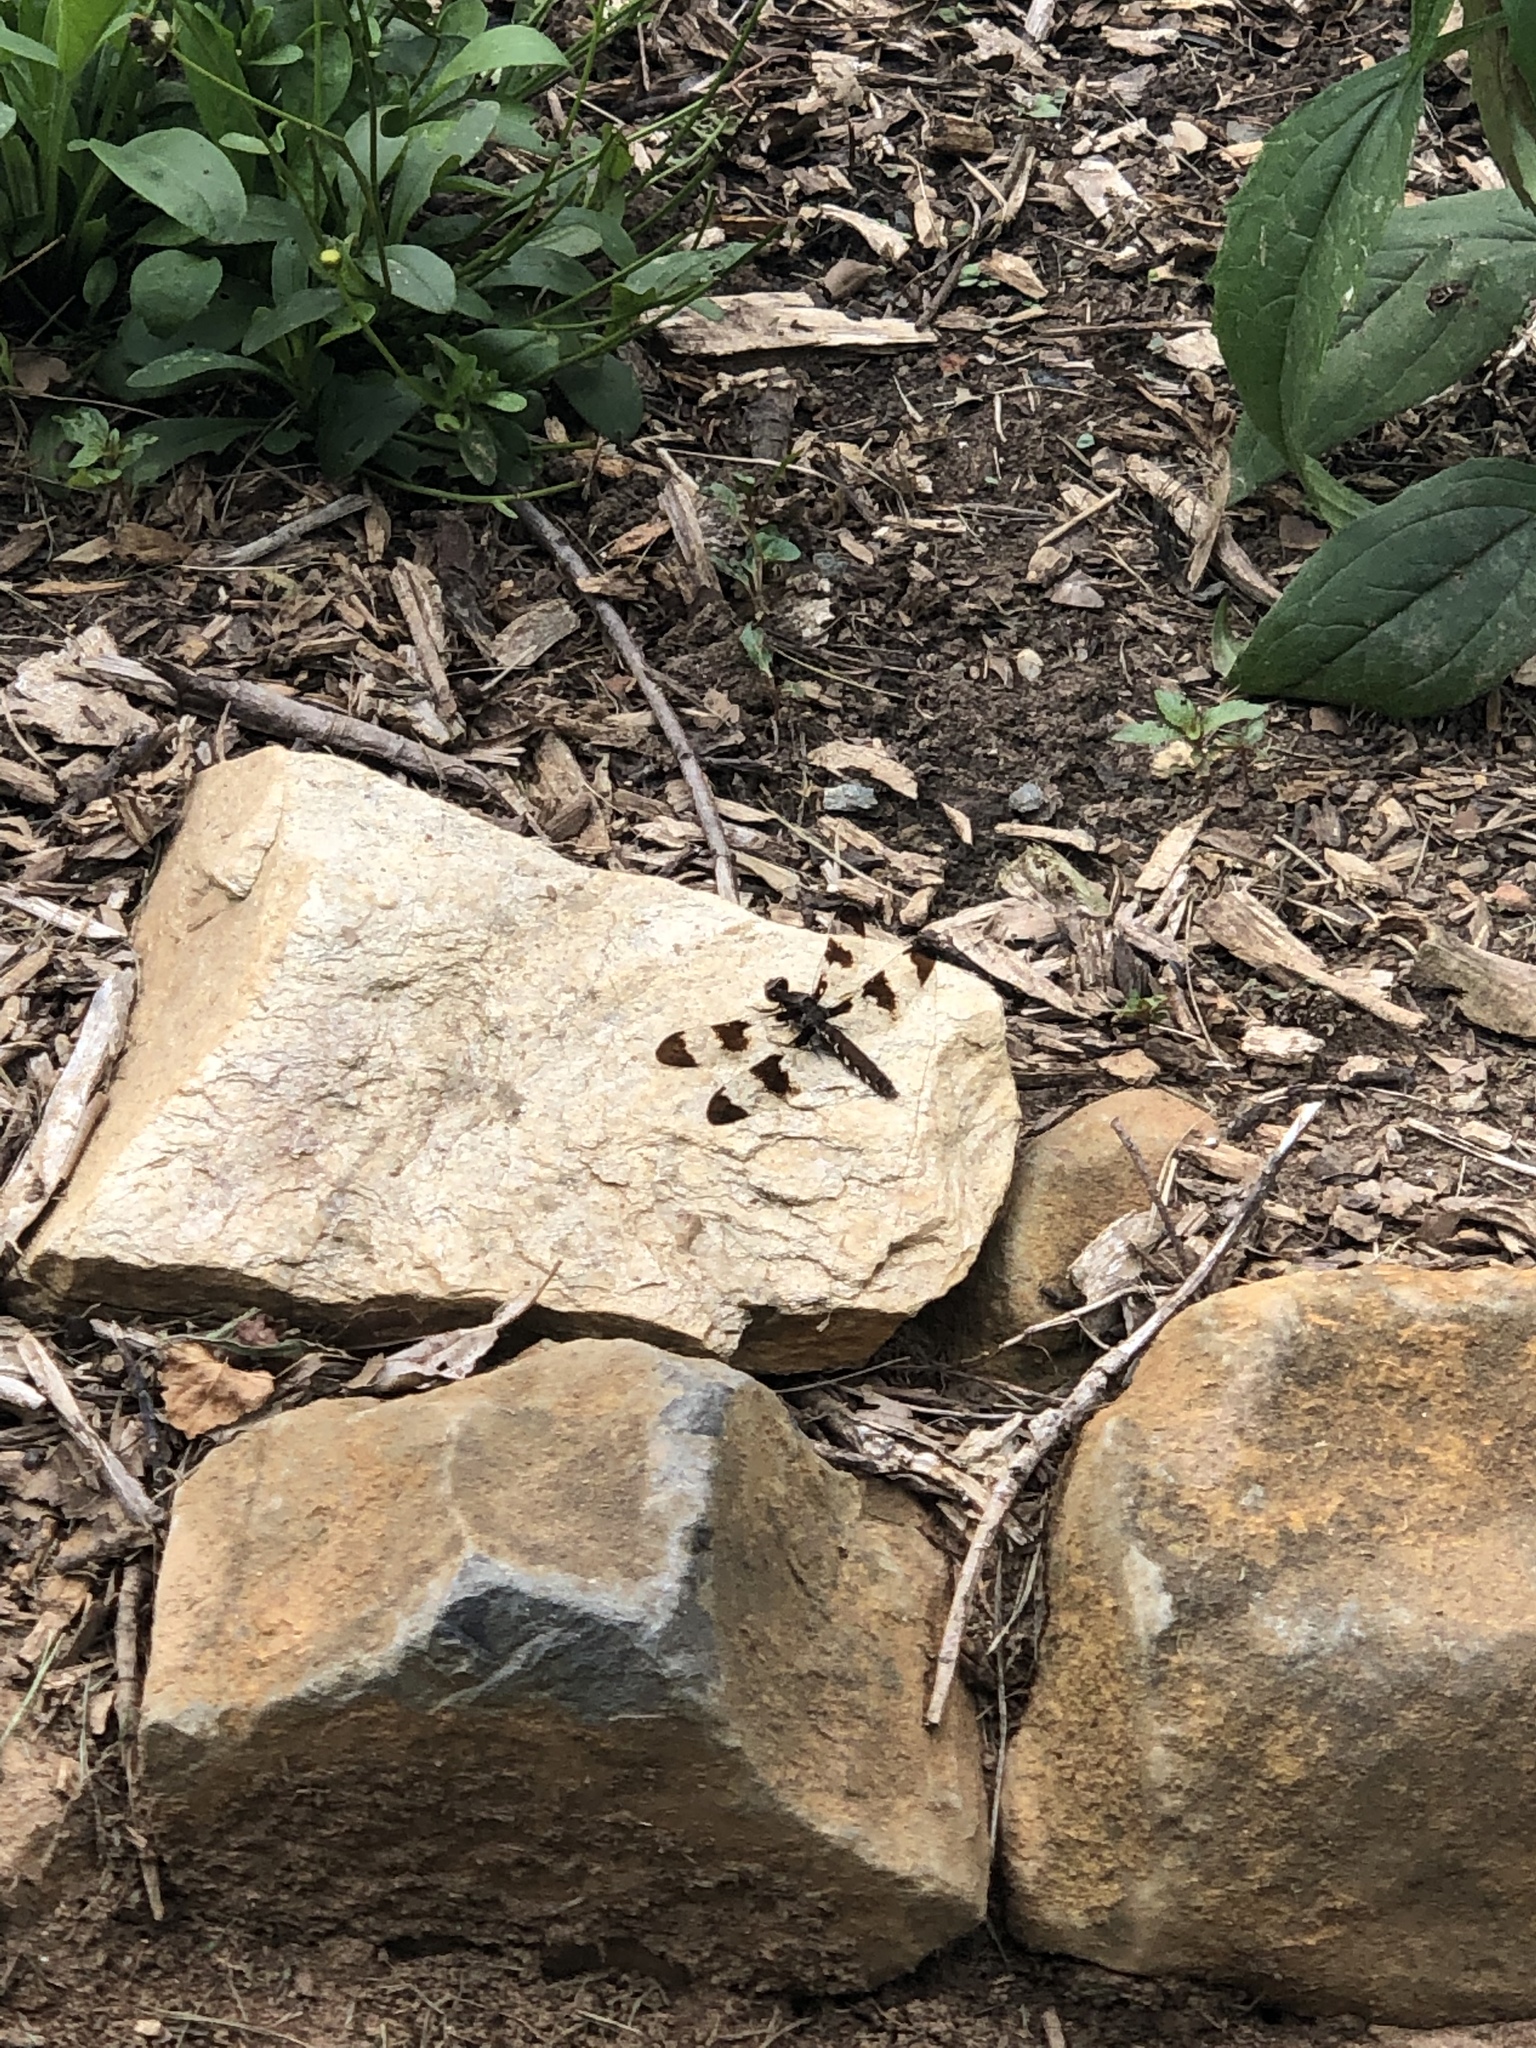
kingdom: Animalia
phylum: Arthropoda
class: Insecta
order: Odonata
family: Libellulidae
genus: Plathemis
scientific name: Plathemis lydia
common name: Common whitetail
